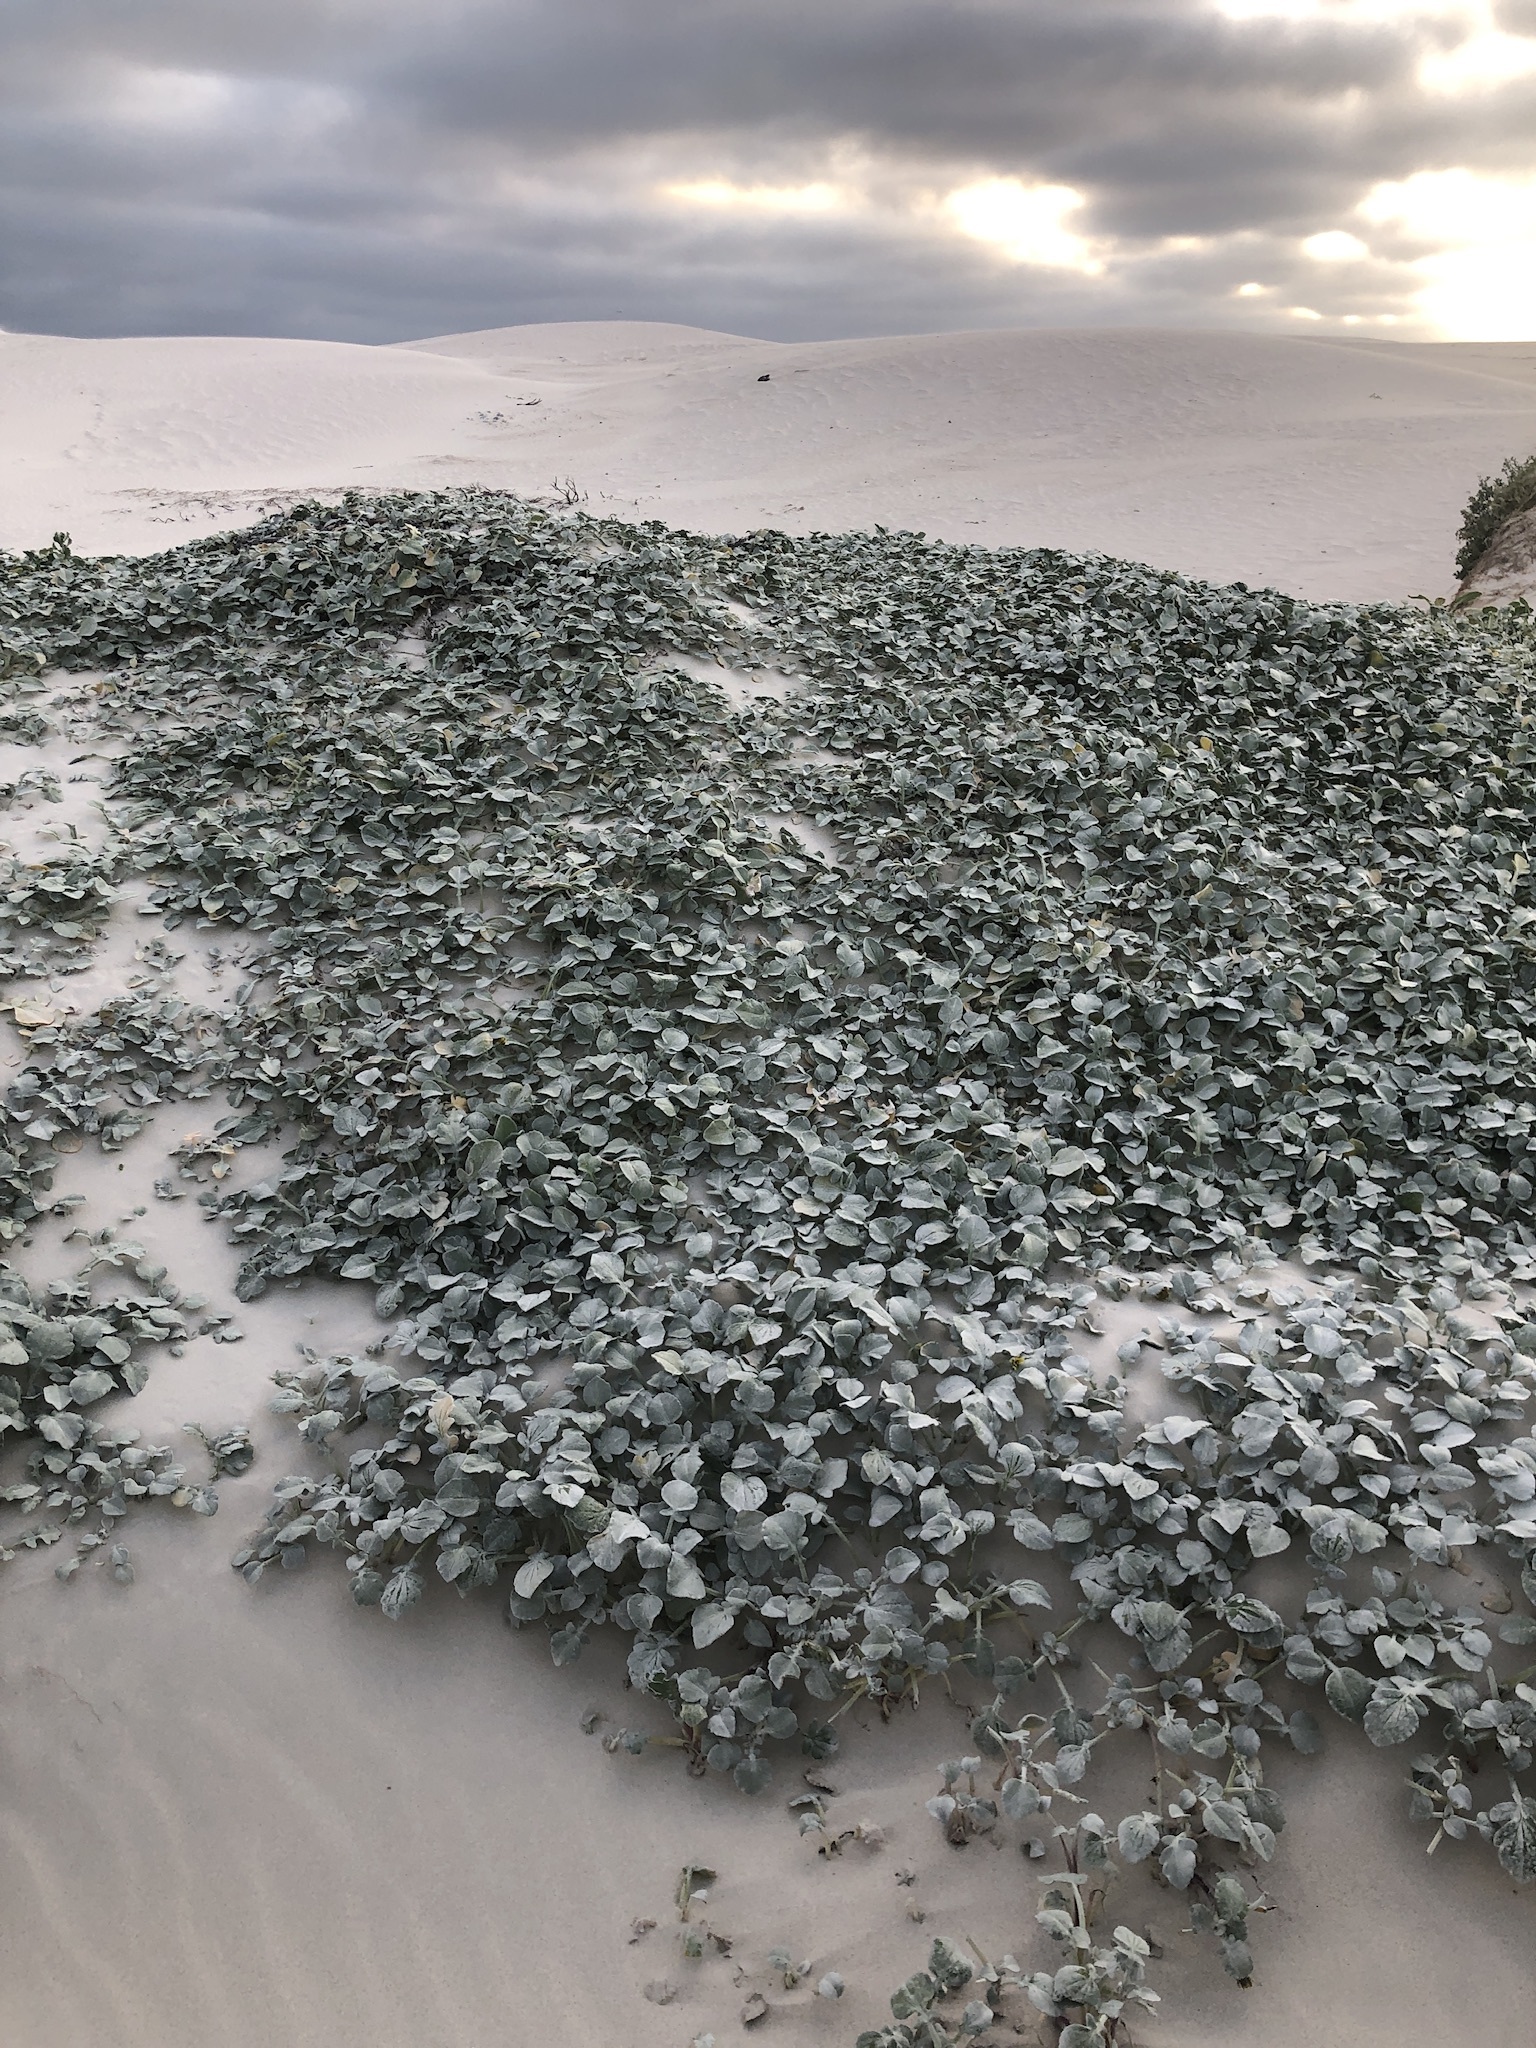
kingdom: Plantae
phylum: Tracheophyta
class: Magnoliopsida
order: Asterales
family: Asteraceae
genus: Arctotheca
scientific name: Arctotheca populifolia
